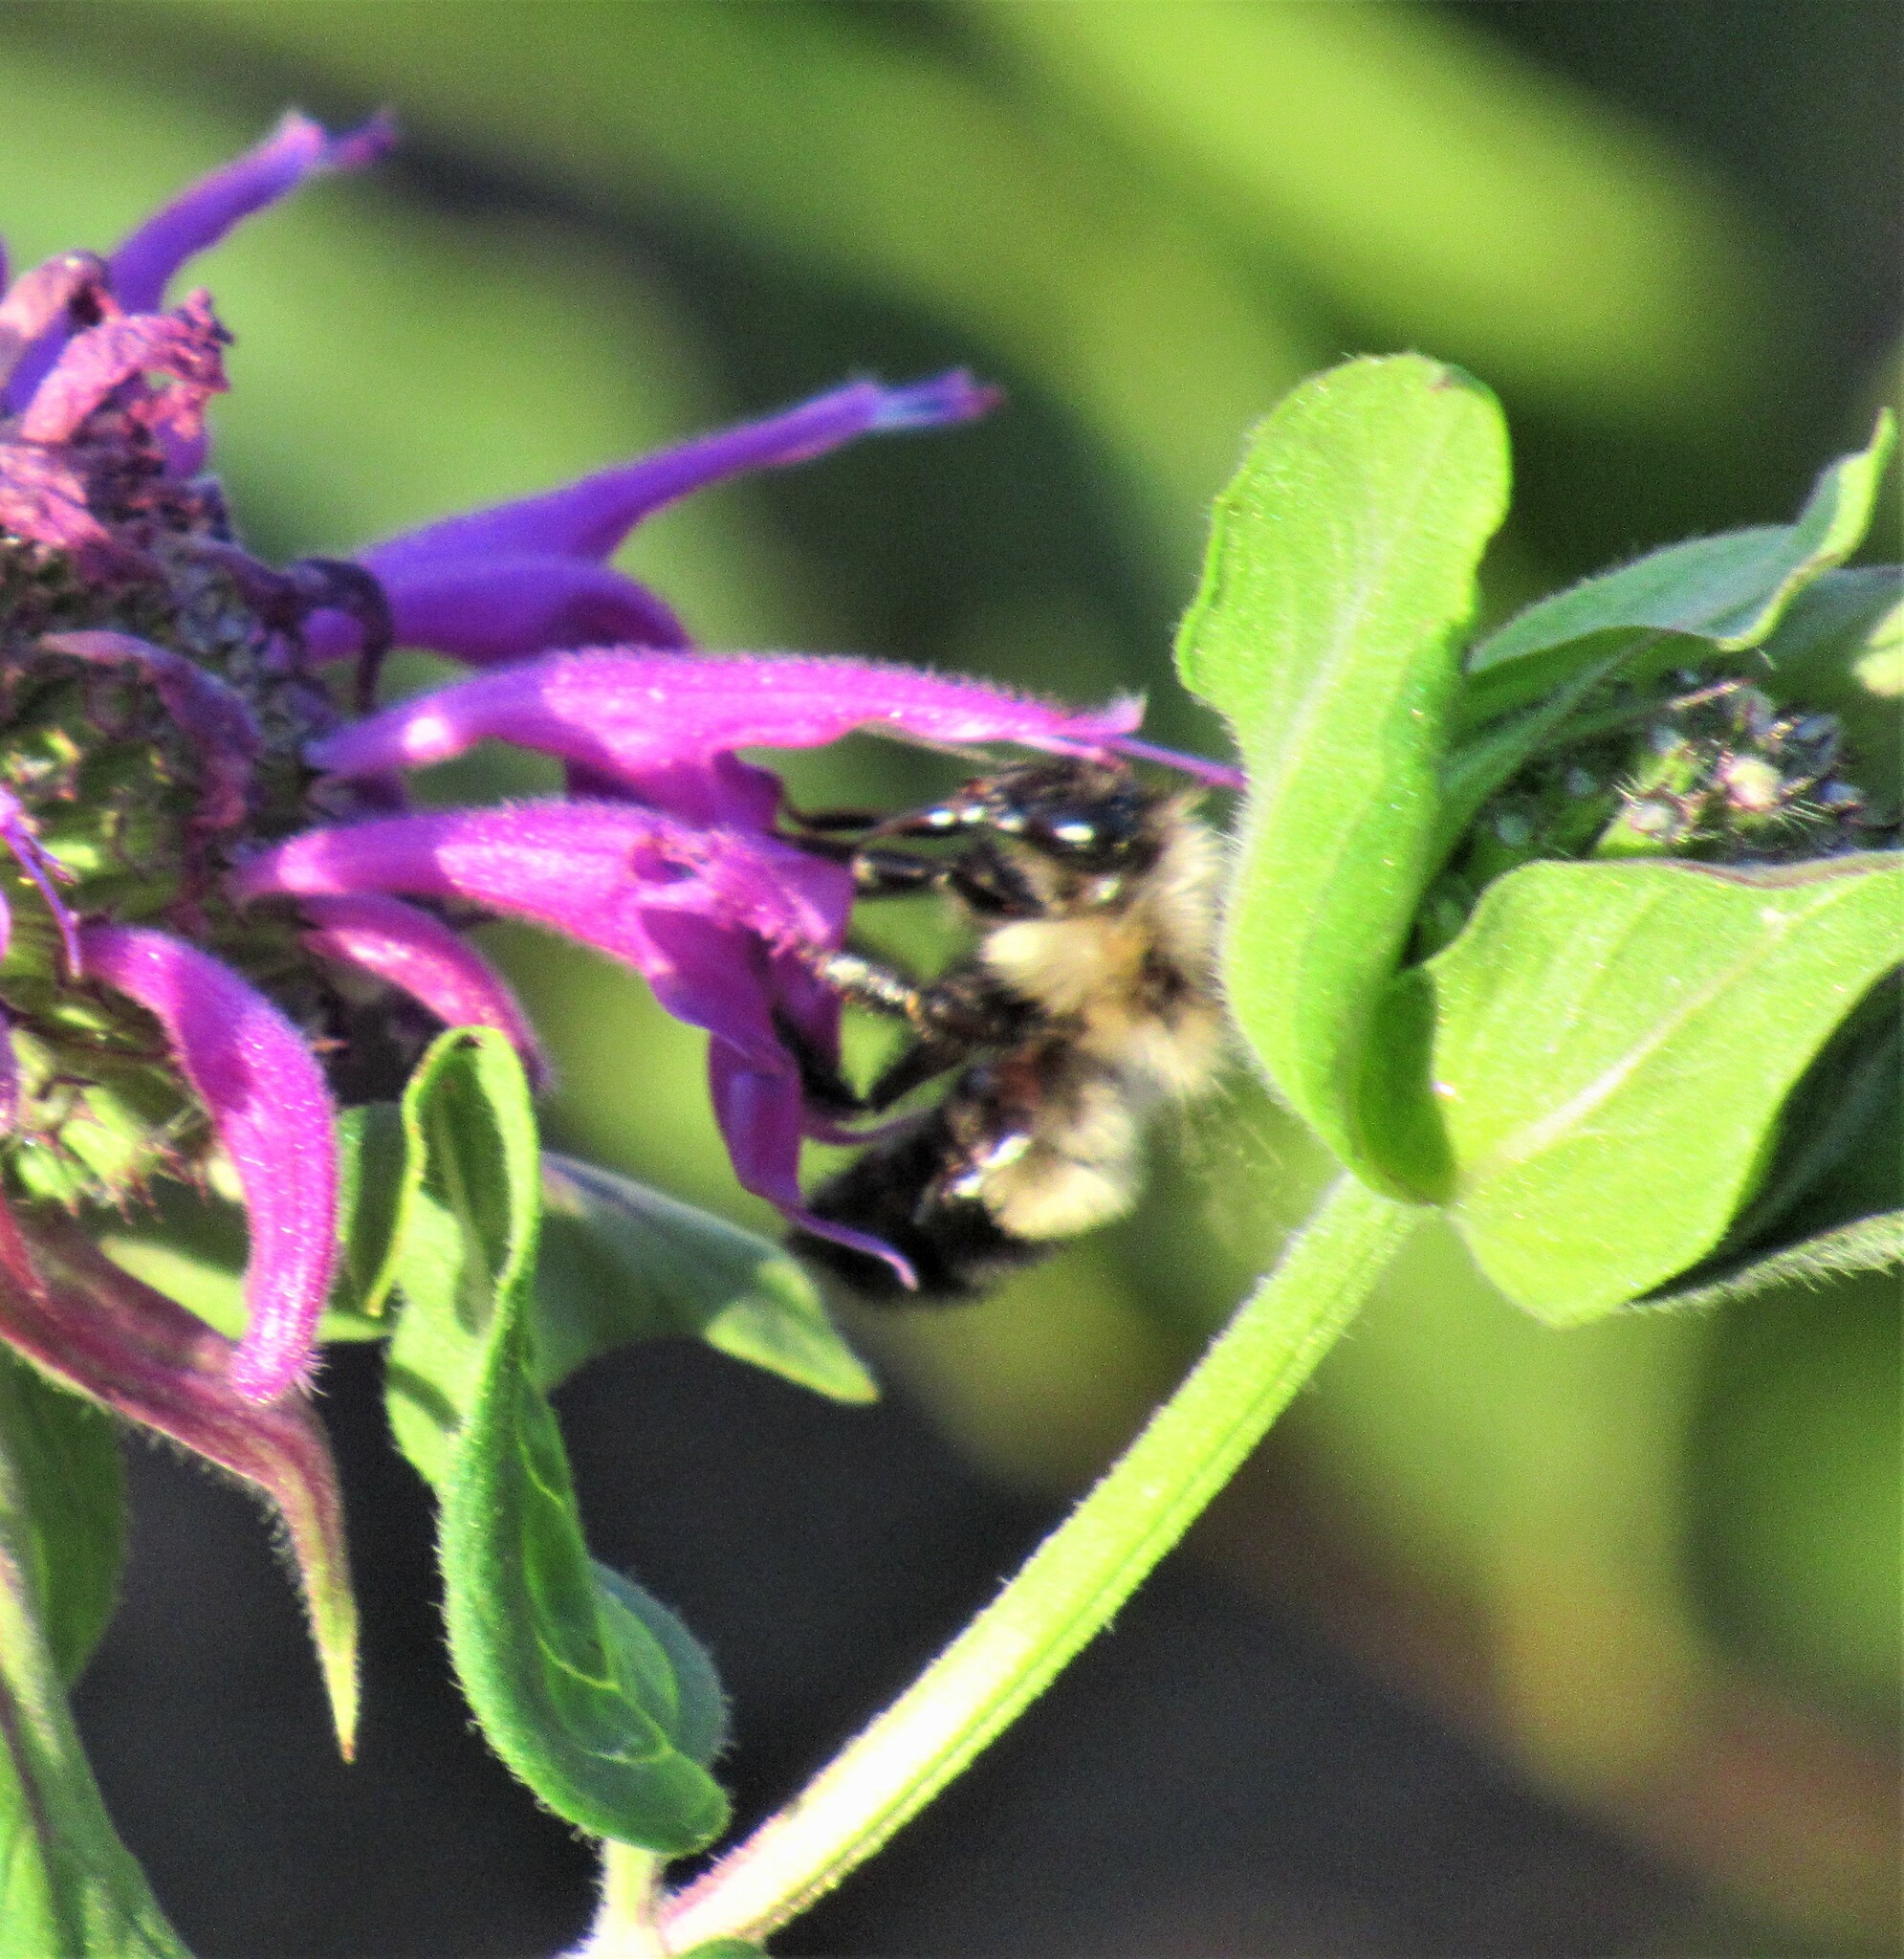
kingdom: Animalia
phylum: Arthropoda
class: Insecta
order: Hymenoptera
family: Apidae
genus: Bombus
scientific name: Bombus vagans
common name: Half-black bumble bee
